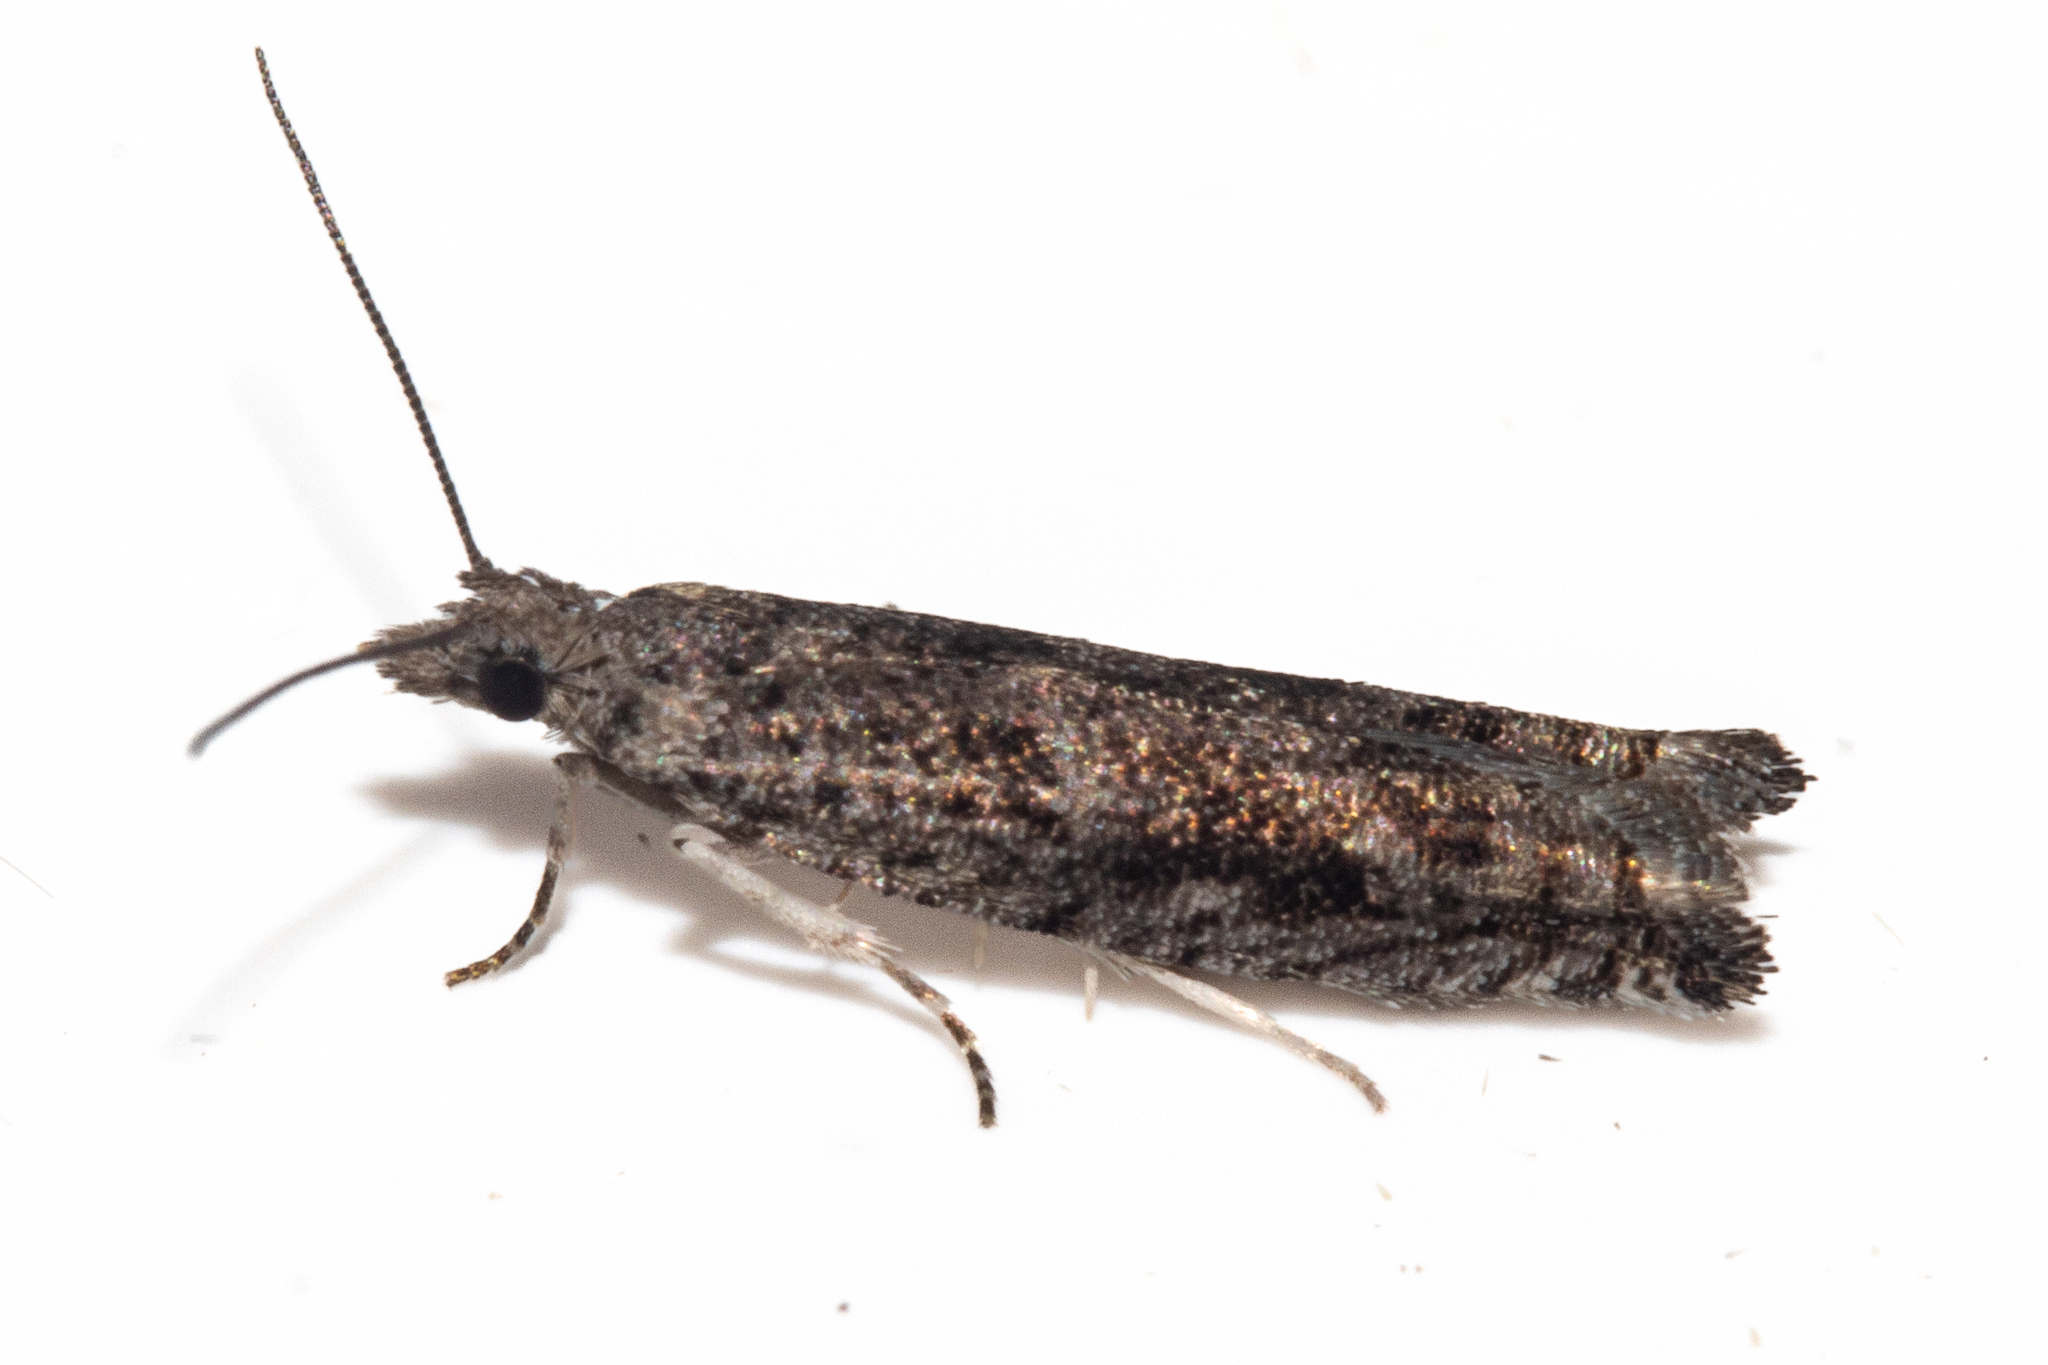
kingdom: Animalia
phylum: Arthropoda
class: Insecta
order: Lepidoptera
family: Tortricidae
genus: Holocola
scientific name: Holocola zopherana
